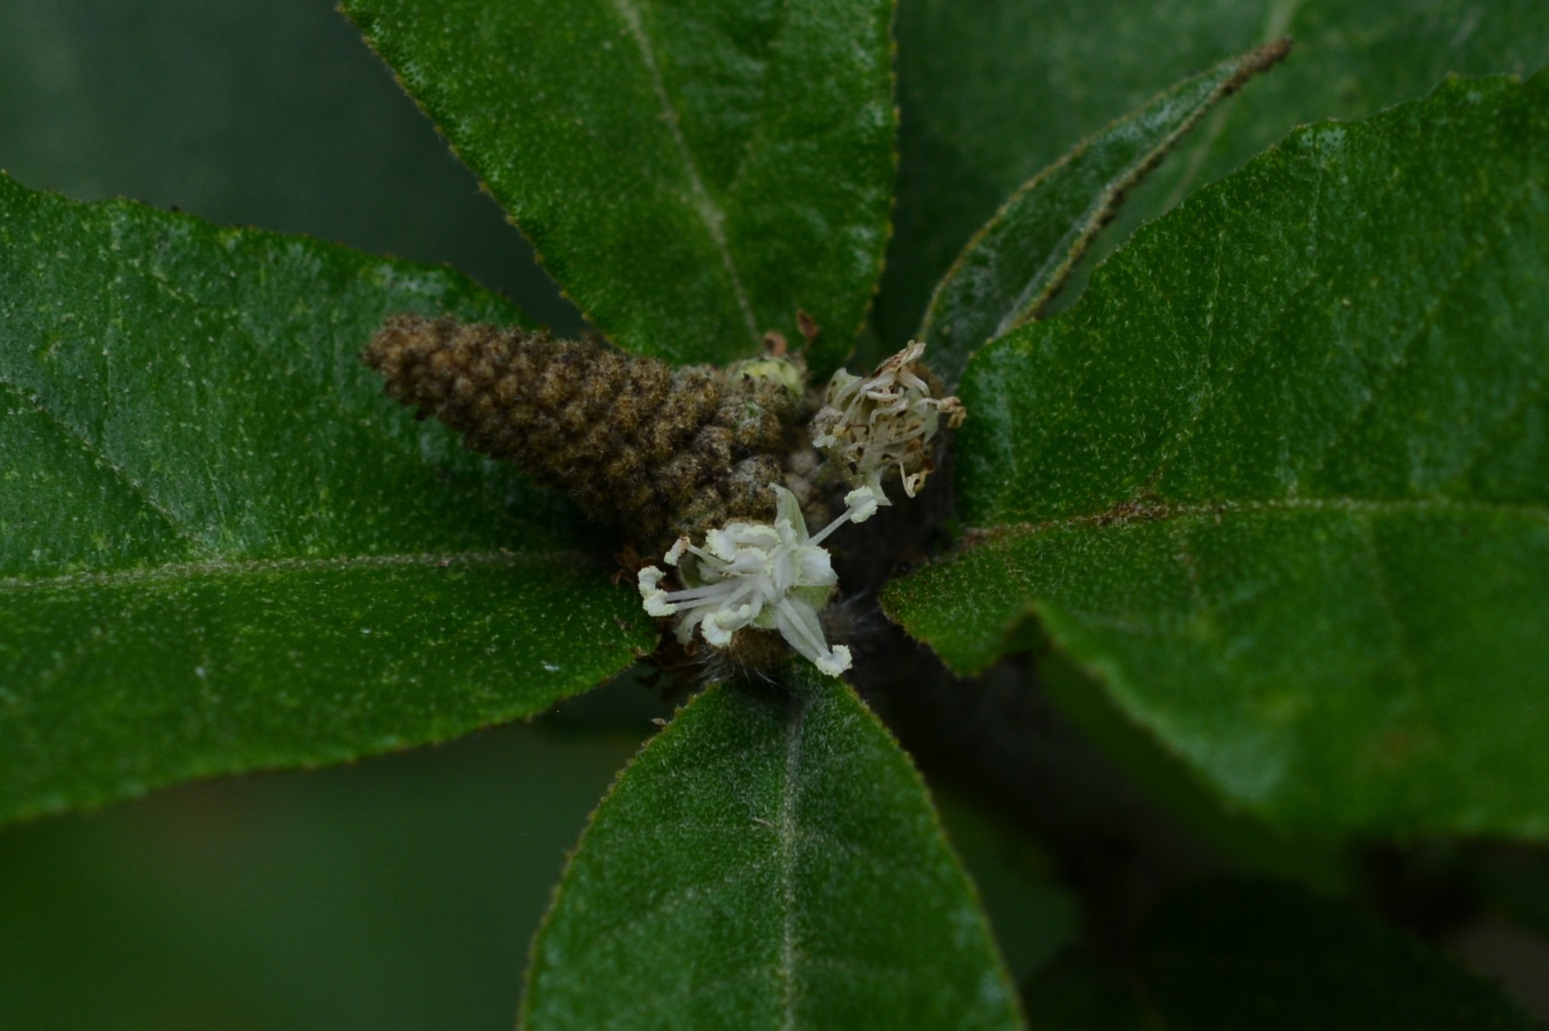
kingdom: Plantae
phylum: Tracheophyta
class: Magnoliopsida
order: Malpighiales
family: Euphorbiaceae
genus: Croton
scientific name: Croton cortesianus
